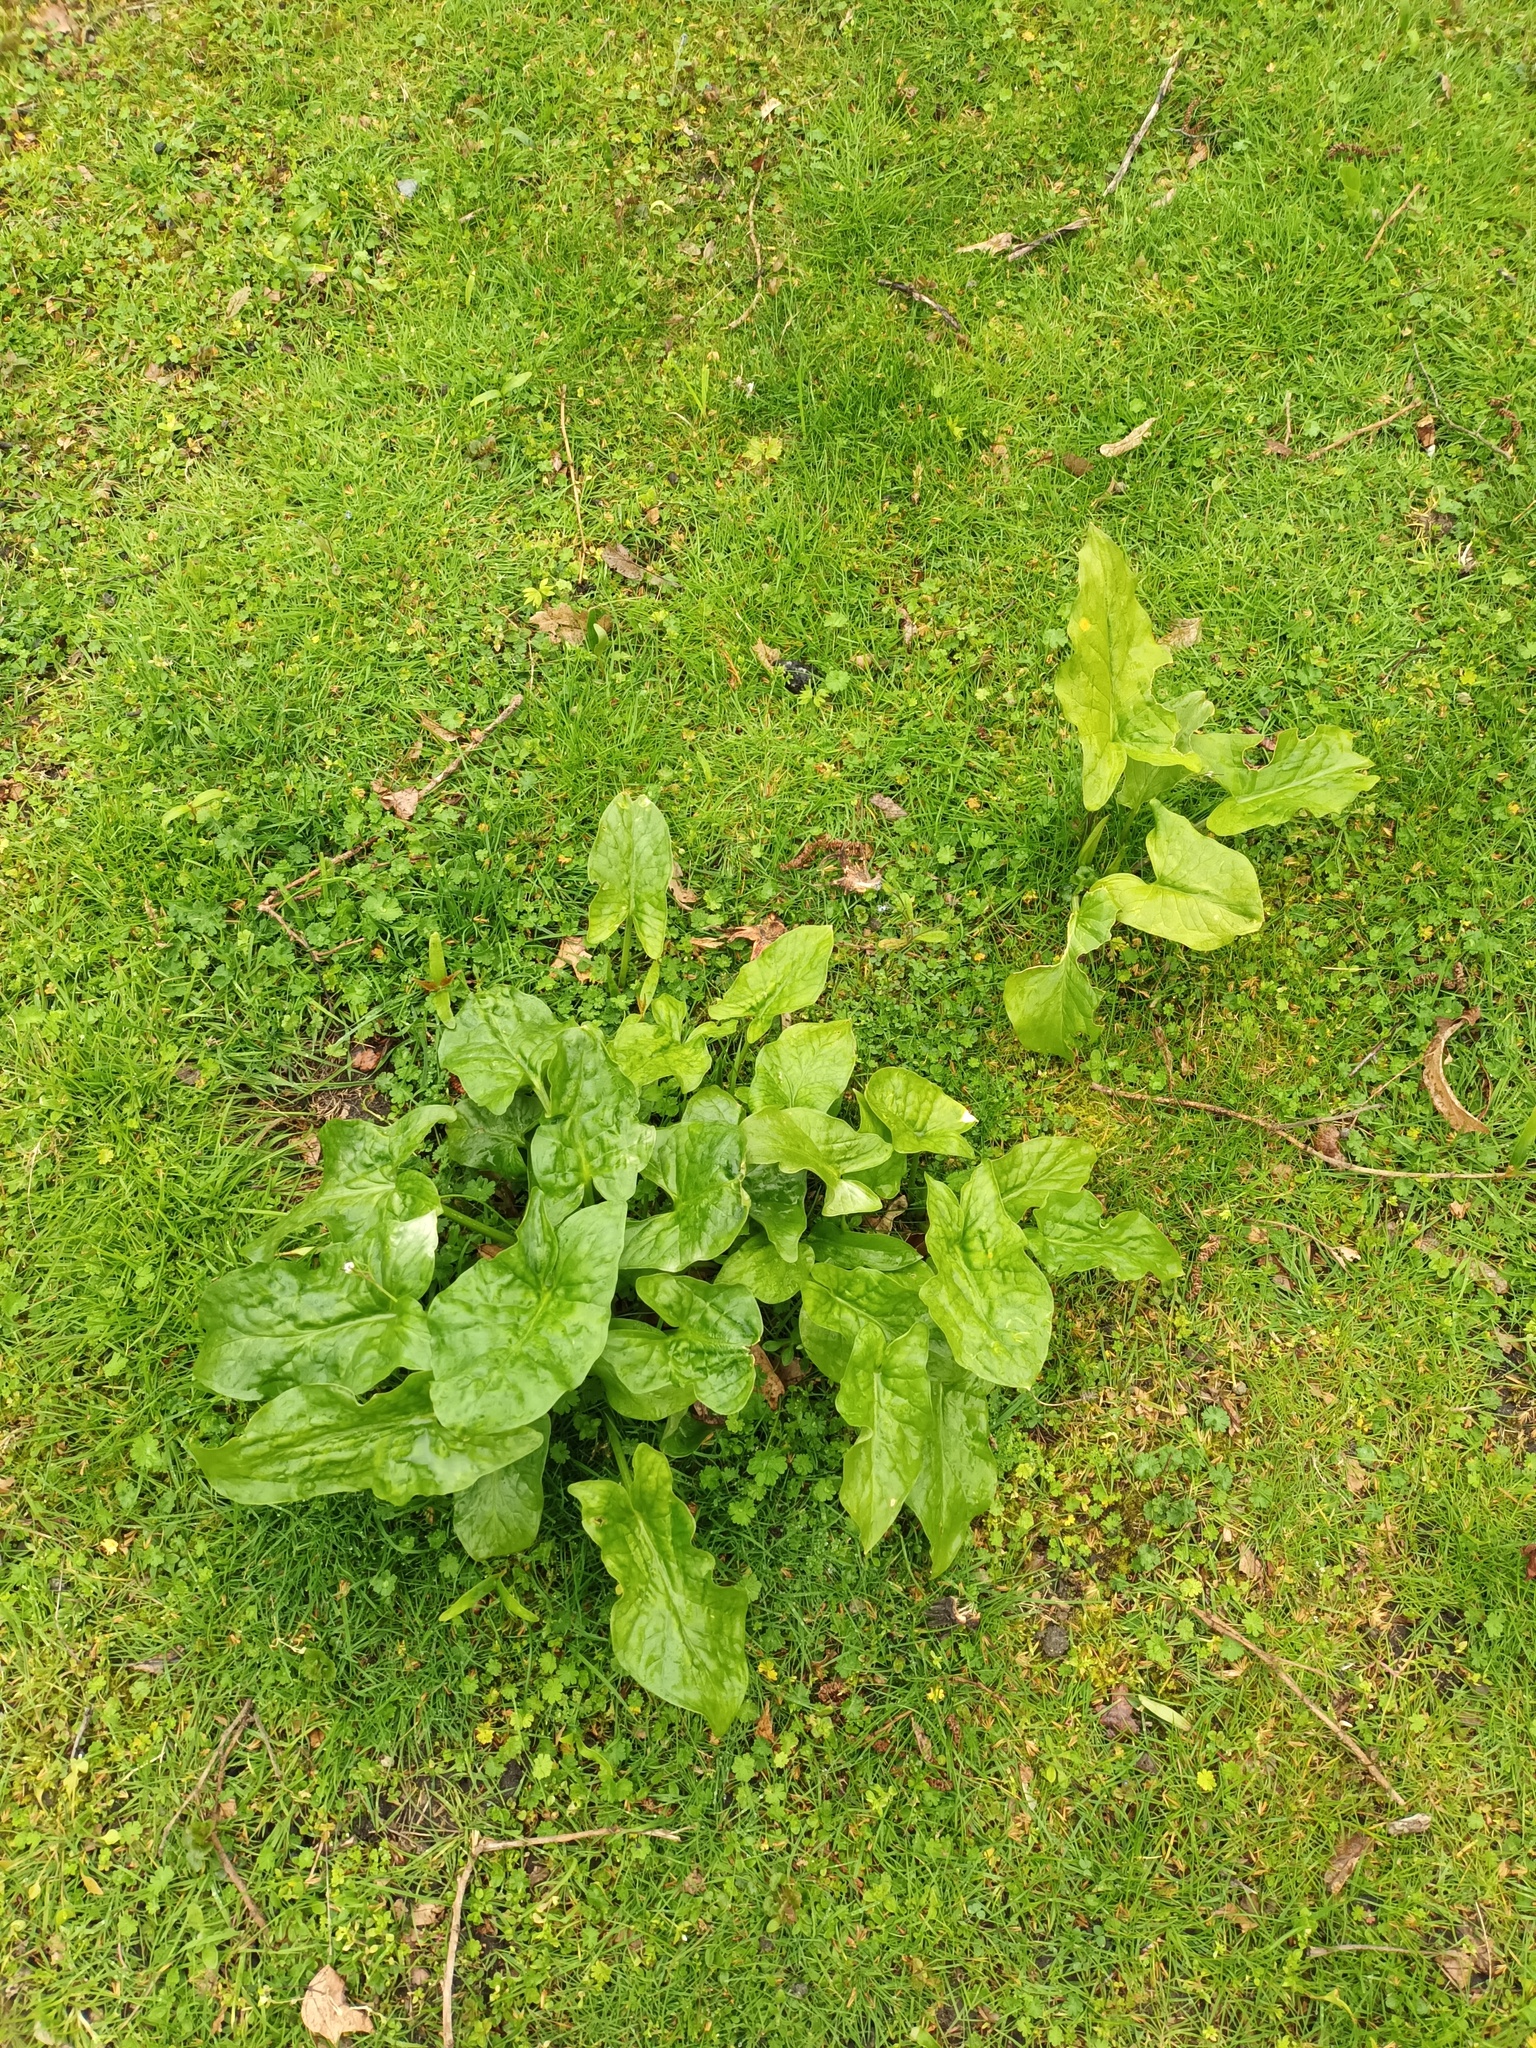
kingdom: Plantae
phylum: Tracheophyta
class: Liliopsida
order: Alismatales
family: Araceae
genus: Arum
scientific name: Arum maculatum
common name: Lords-and-ladies
